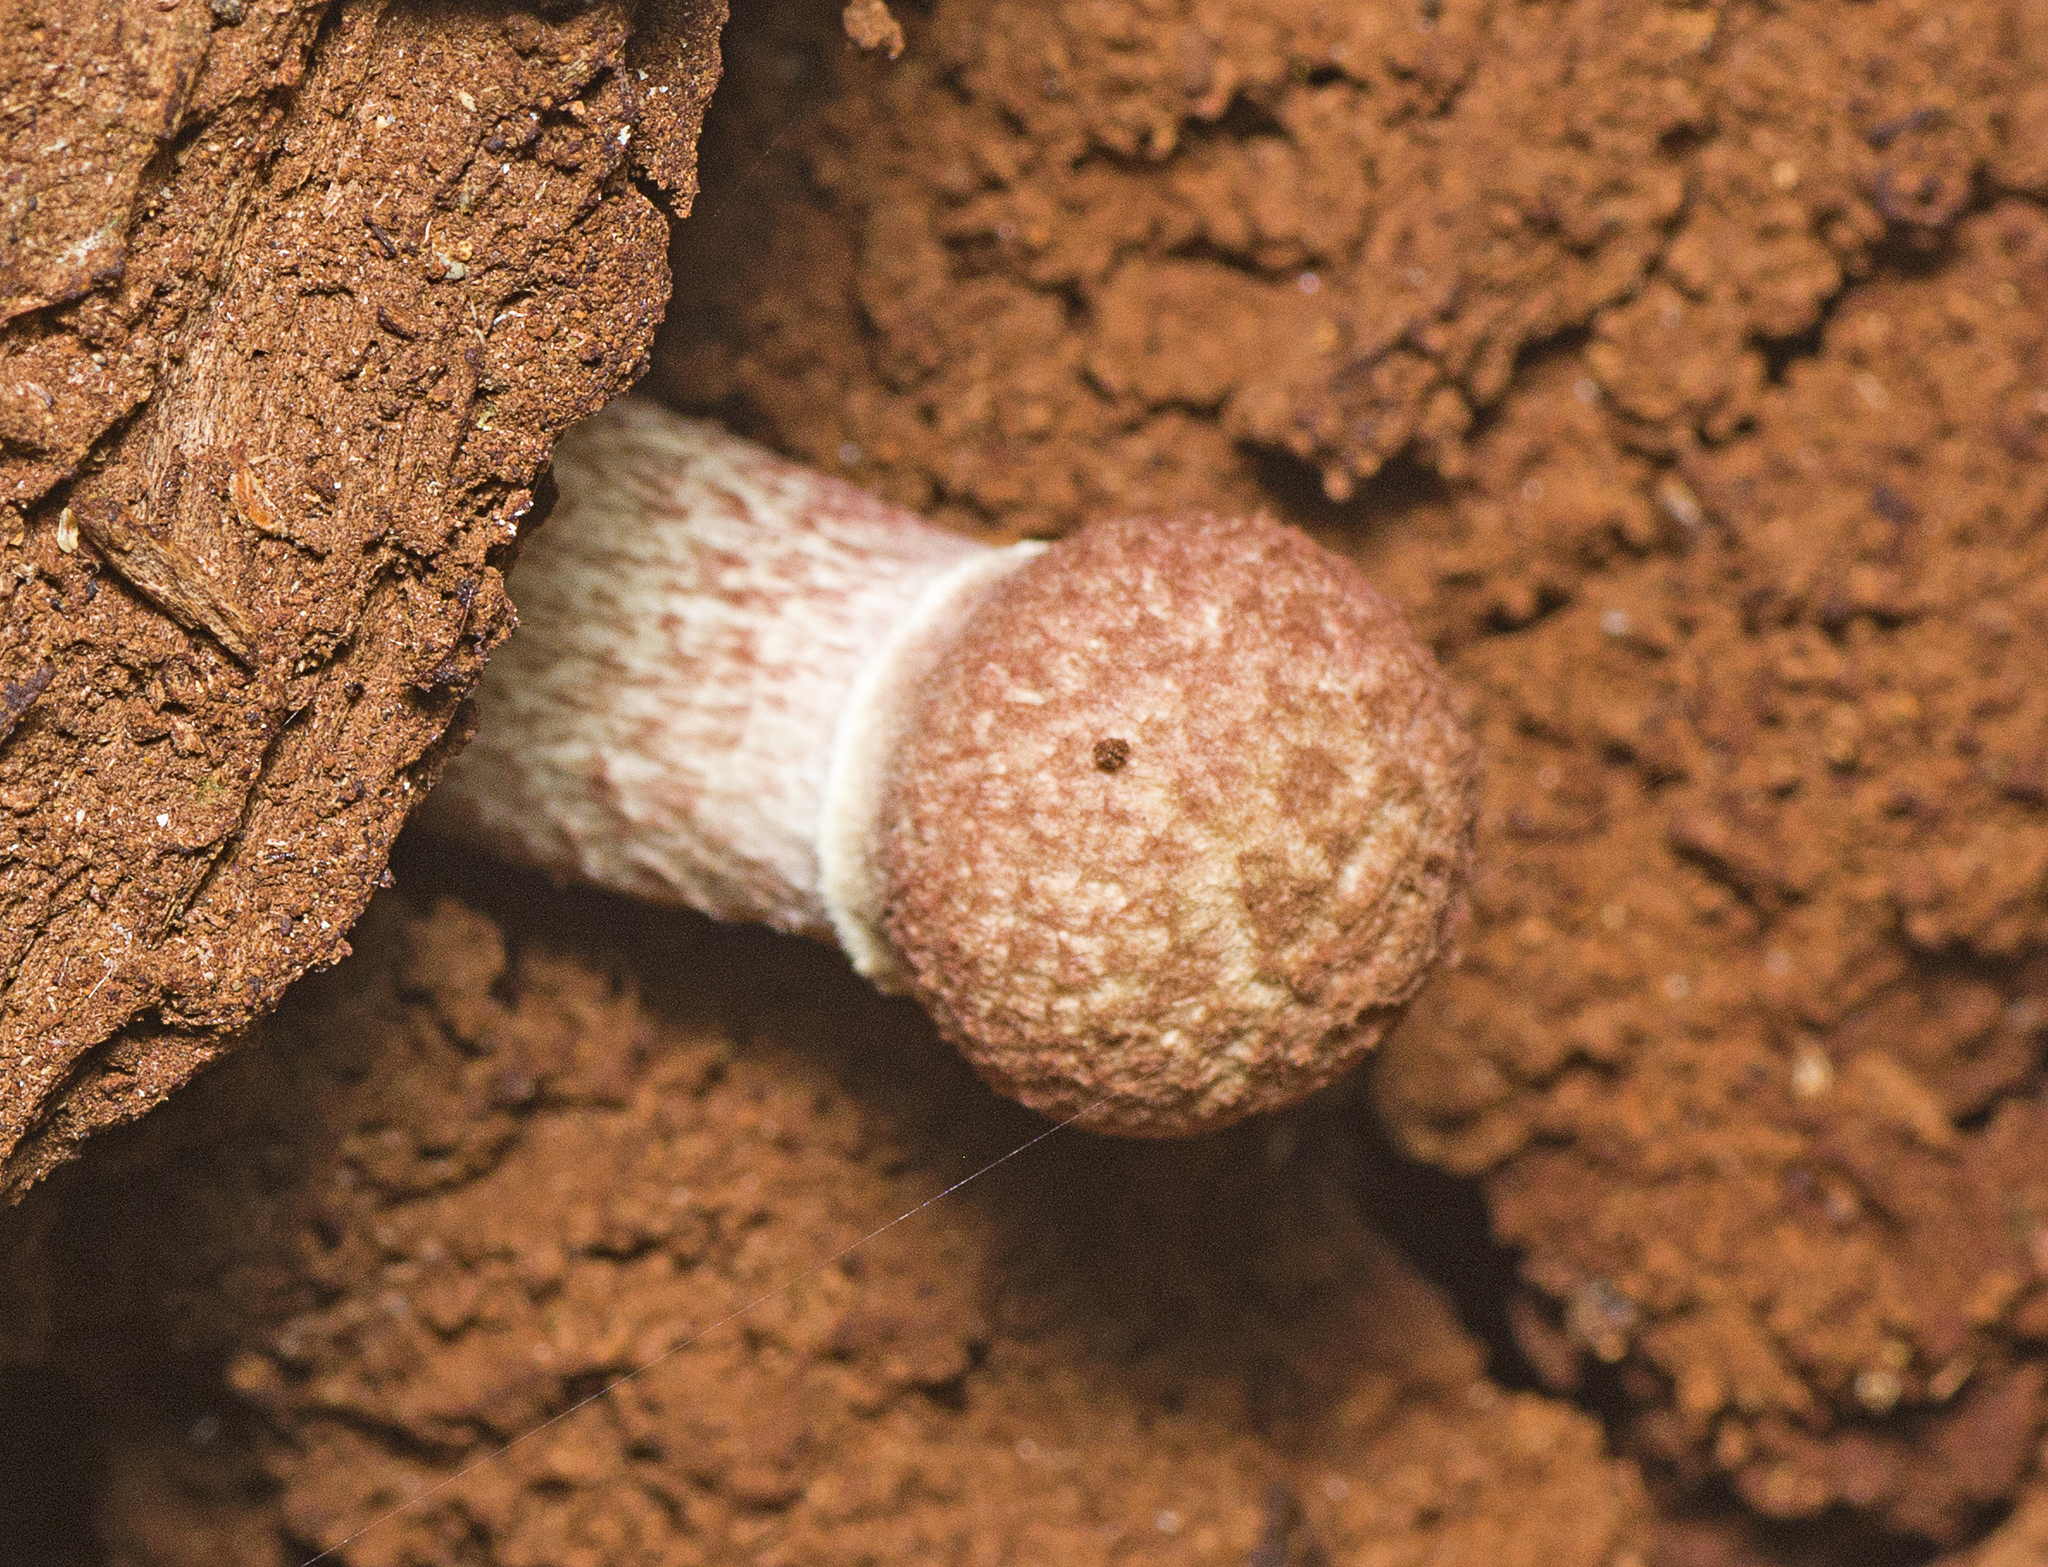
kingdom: Fungi
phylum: Basidiomycota
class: Agaricomycetes
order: Boletales
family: Boletaceae
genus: Boletellus
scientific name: Boletellus emodensis
